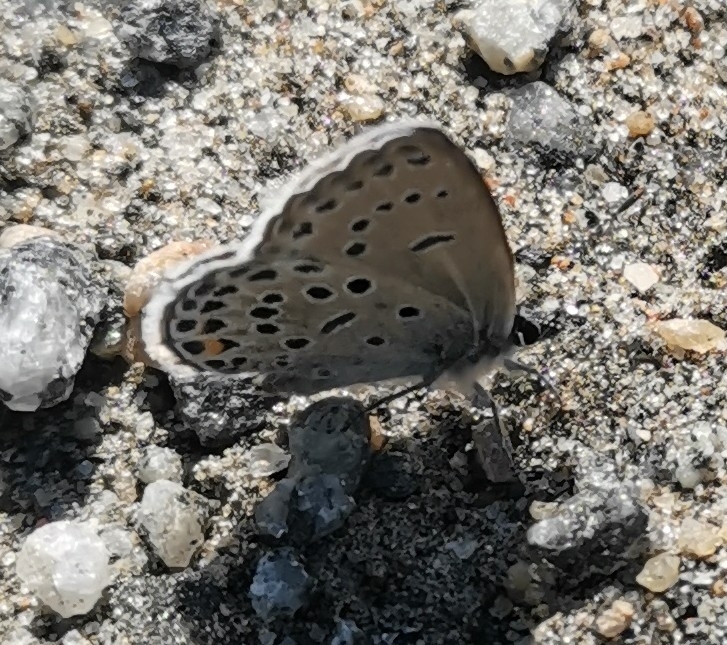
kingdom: Animalia
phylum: Arthropoda
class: Insecta
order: Lepidoptera
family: Lycaenidae
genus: Vacciniina
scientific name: Vacciniina optilete
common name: Cranberry blue
